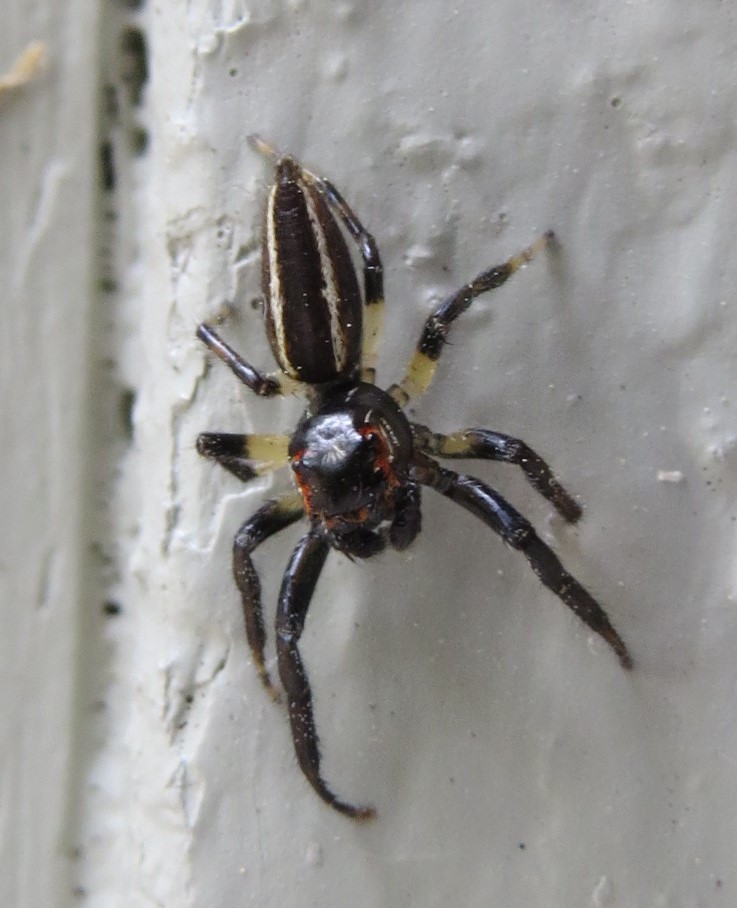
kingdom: Animalia
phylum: Arthropoda
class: Arachnida
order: Araneae
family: Salticidae
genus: Colonus
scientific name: Colonus sylvanus
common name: Jumping spiders
